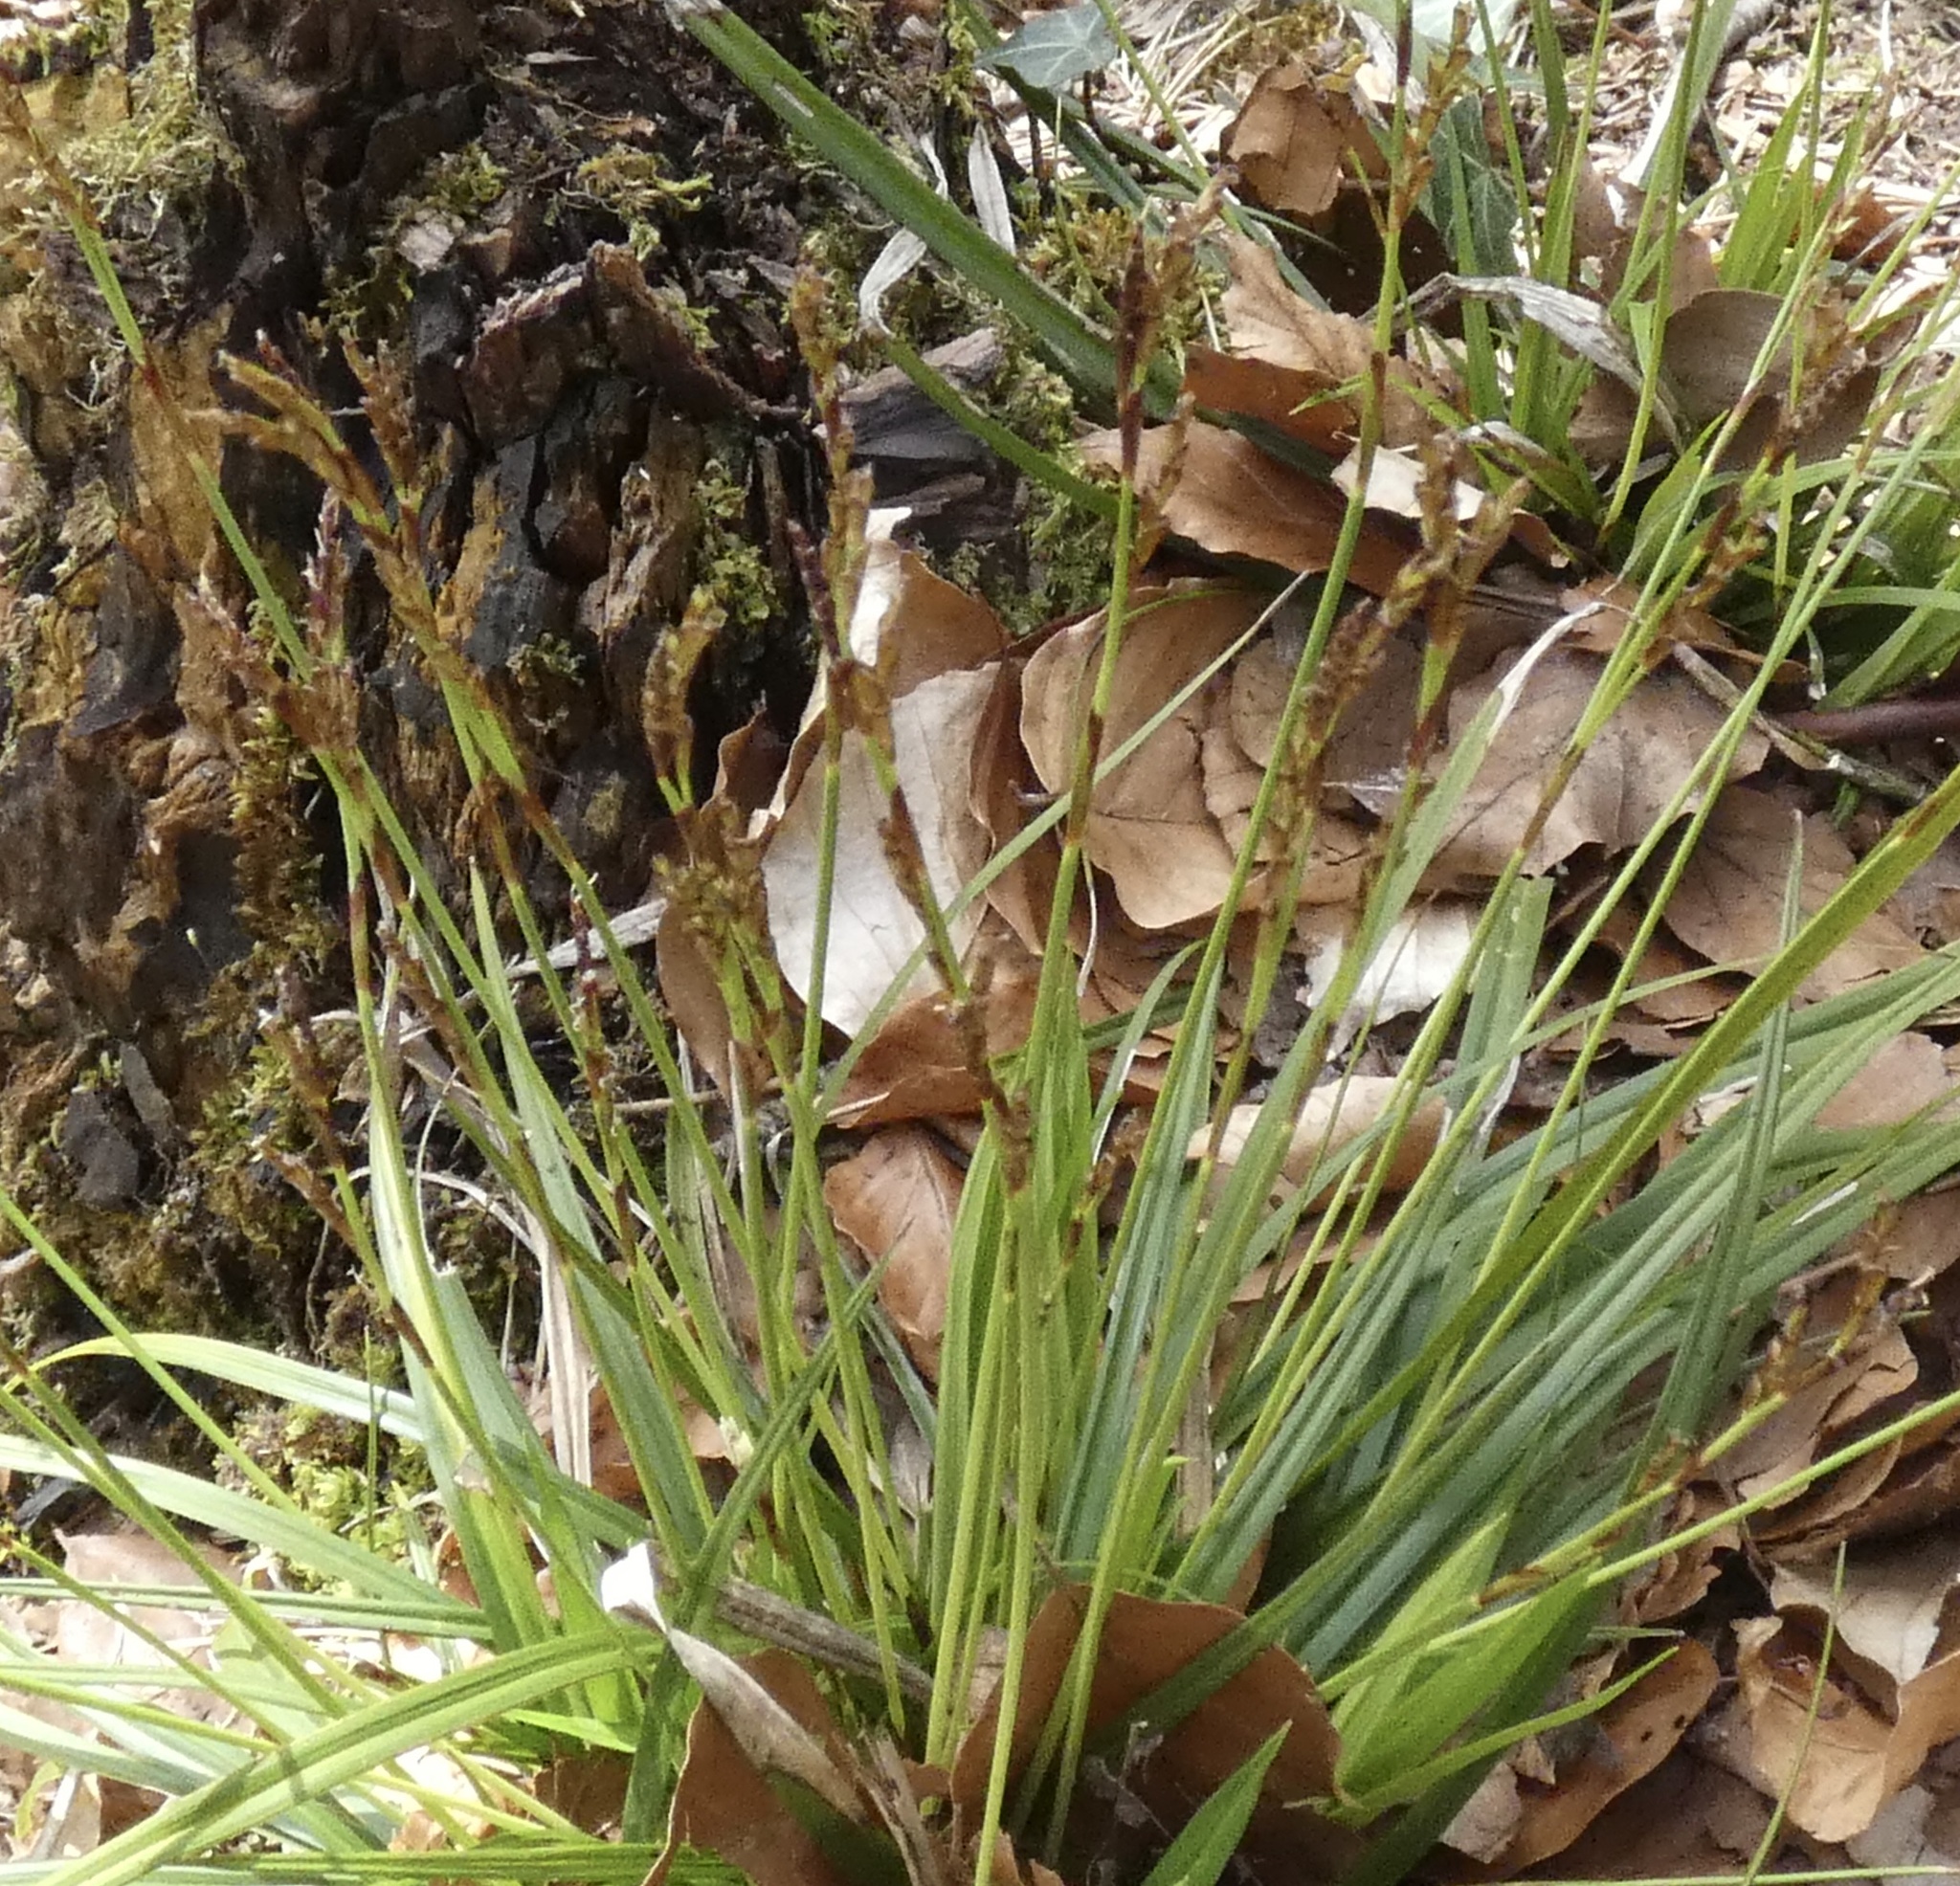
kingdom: Plantae
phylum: Tracheophyta
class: Liliopsida
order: Poales
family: Cyperaceae
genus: Carex
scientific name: Carex digitata
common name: Fingered sedge
